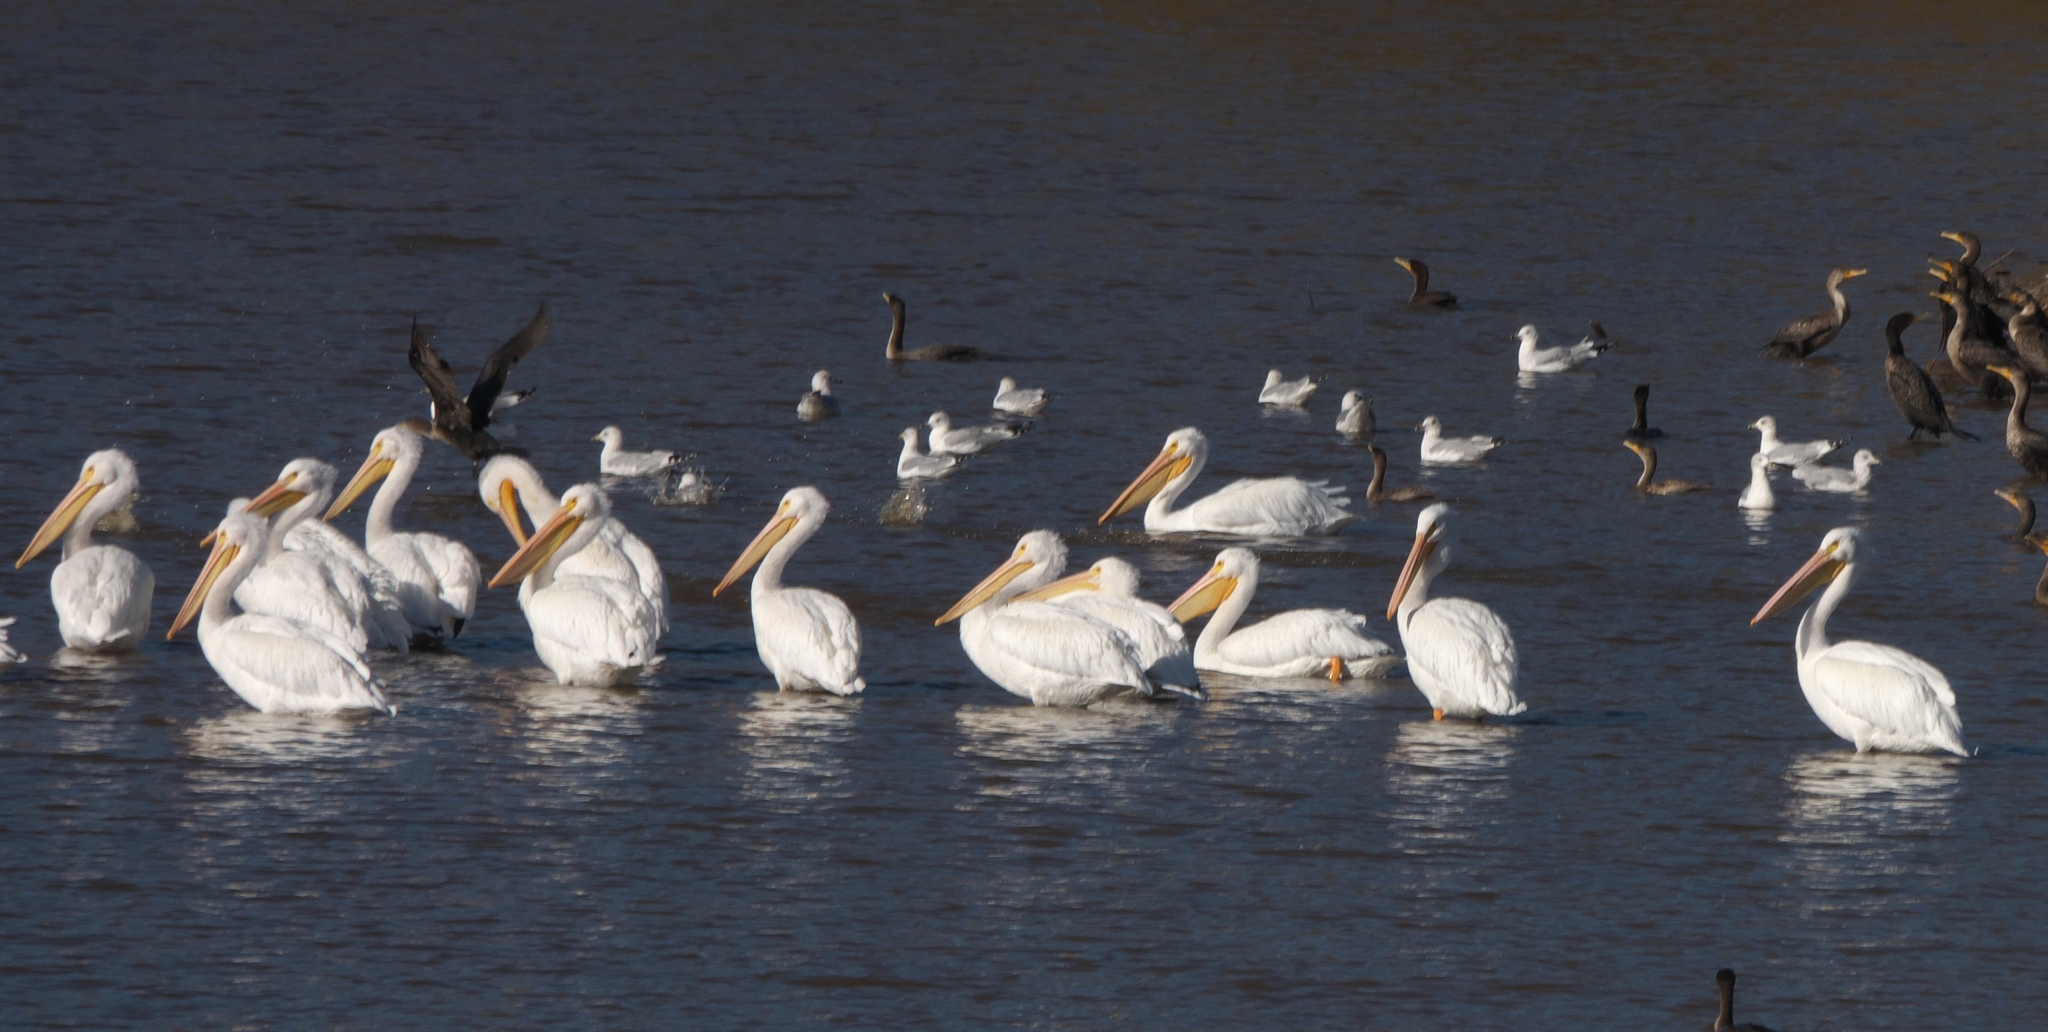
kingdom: Animalia
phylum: Chordata
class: Aves
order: Pelecaniformes
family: Pelecanidae
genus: Pelecanus
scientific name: Pelecanus erythrorhynchos
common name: American white pelican
